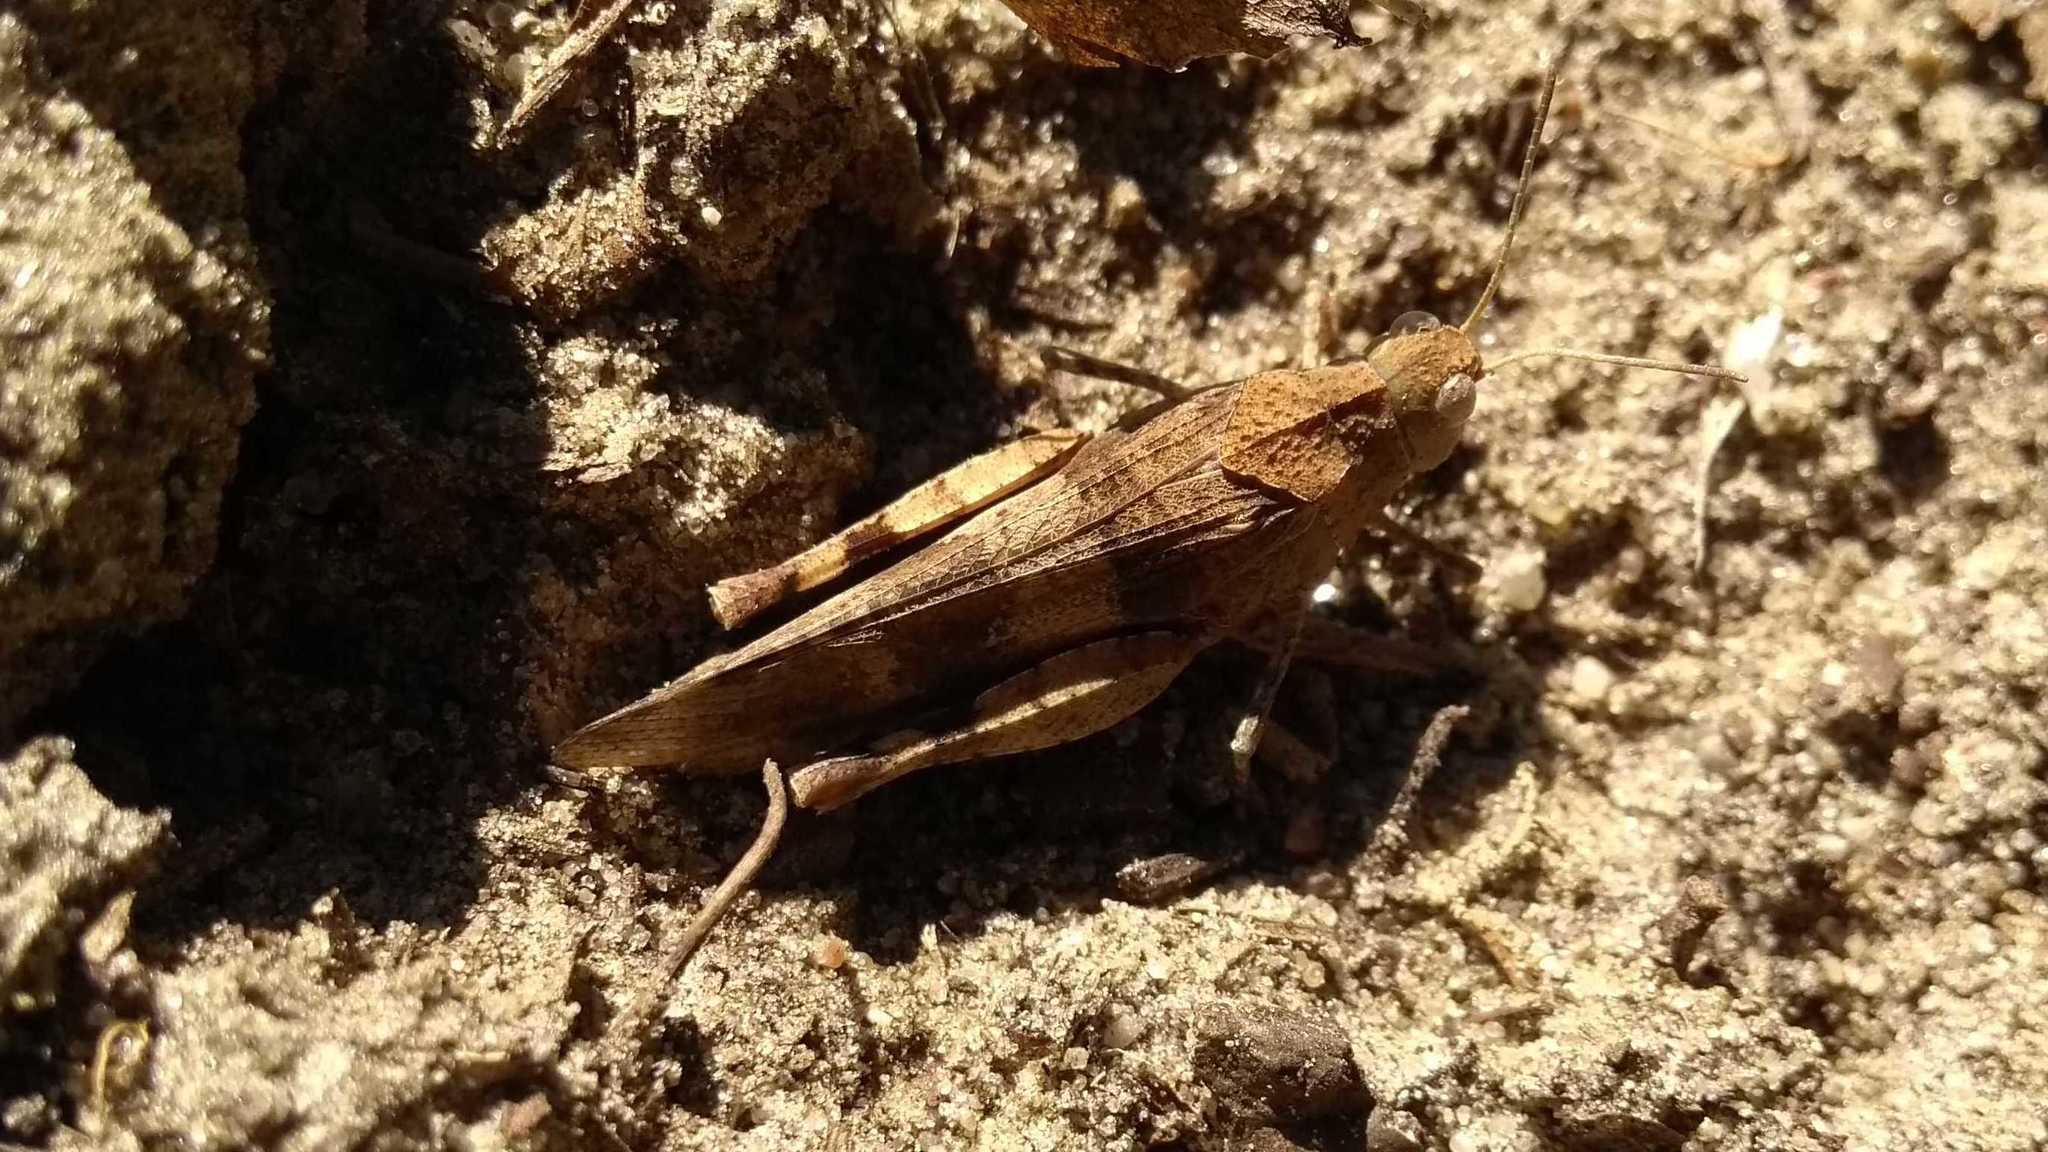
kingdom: Animalia
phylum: Arthropoda
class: Insecta
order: Orthoptera
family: Acrididae
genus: Oedipoda
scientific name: Oedipoda caerulescens
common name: Blue-winged grasshopper
